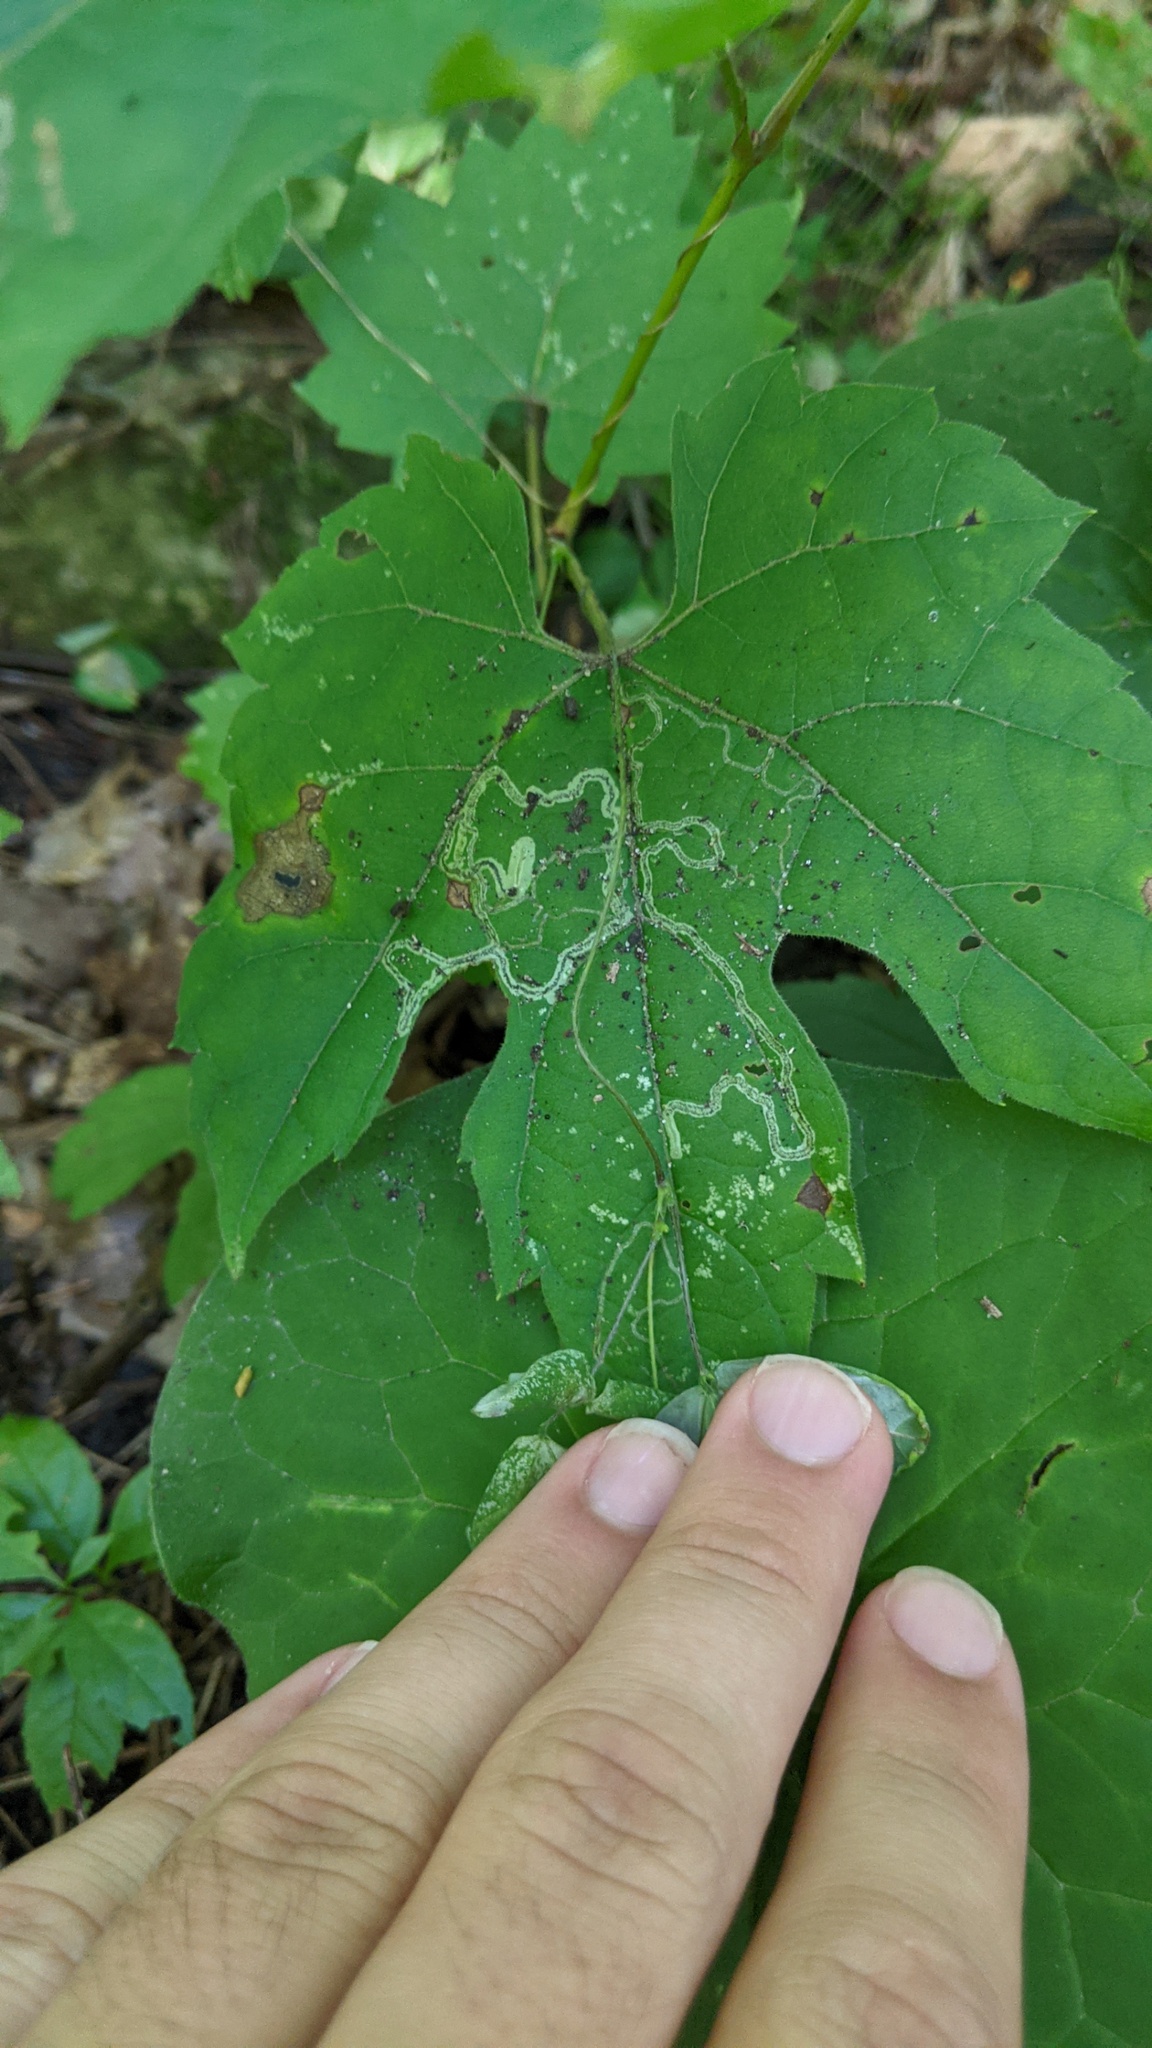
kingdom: Plantae
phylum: Tracheophyta
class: Magnoliopsida
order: Vitales
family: Vitaceae
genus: Vitis
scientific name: Vitis riparia
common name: Frost grape
